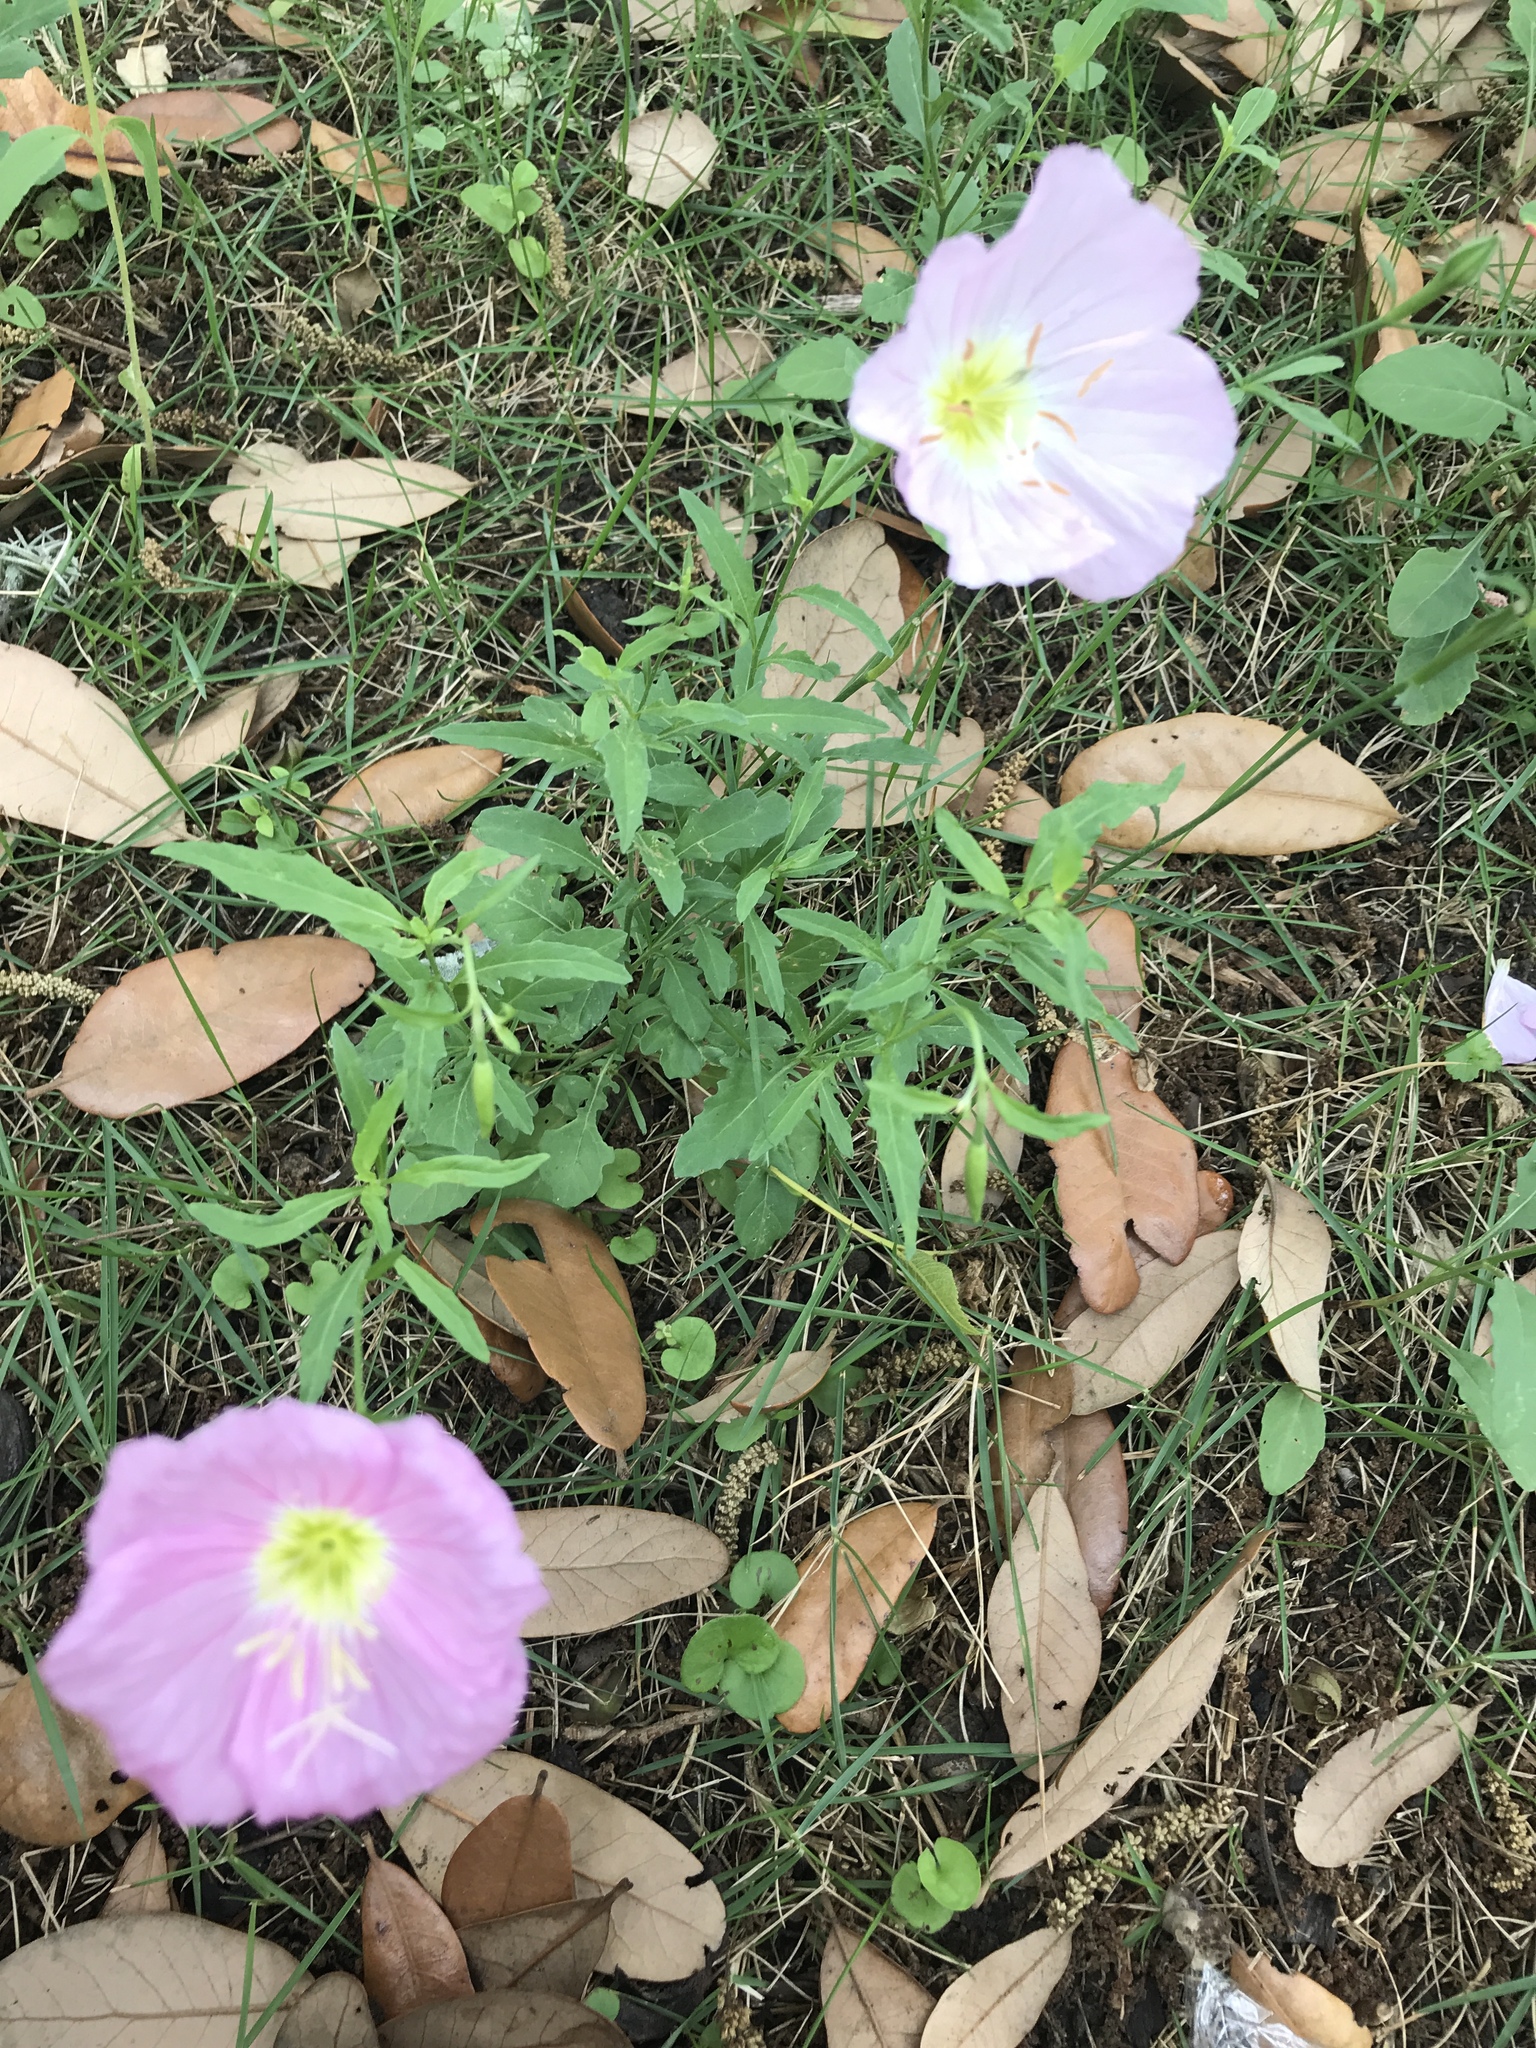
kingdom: Plantae
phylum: Tracheophyta
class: Magnoliopsida
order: Myrtales
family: Onagraceae
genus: Oenothera
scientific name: Oenothera speciosa
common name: White evening-primrose
